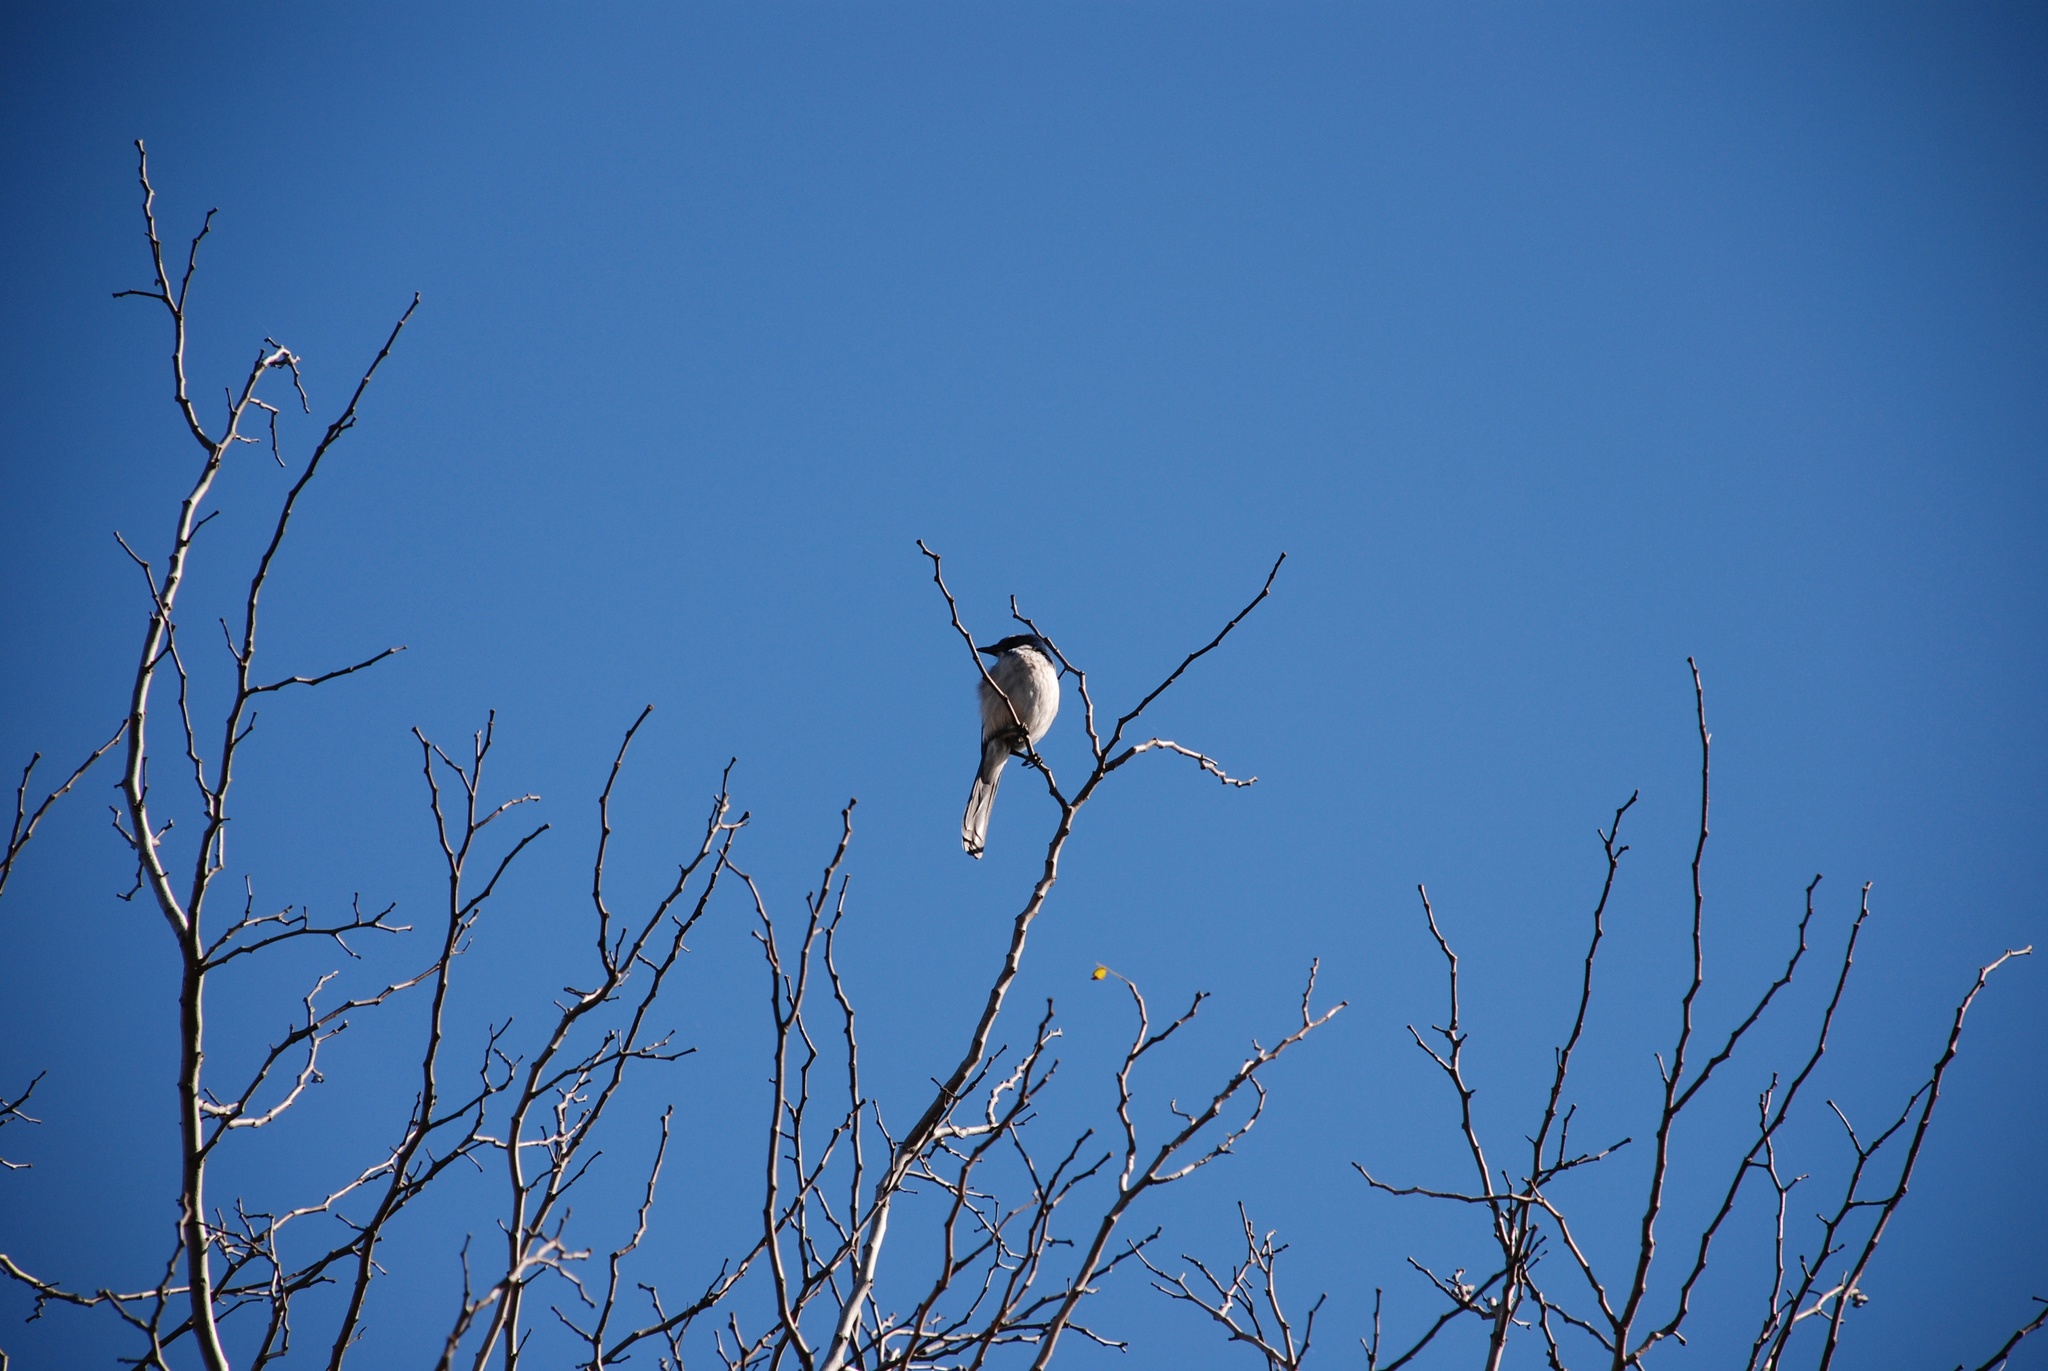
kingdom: Animalia
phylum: Chordata
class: Aves
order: Passeriformes
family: Corvidae
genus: Aphelocoma
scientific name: Aphelocoma californica
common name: California scrub-jay
